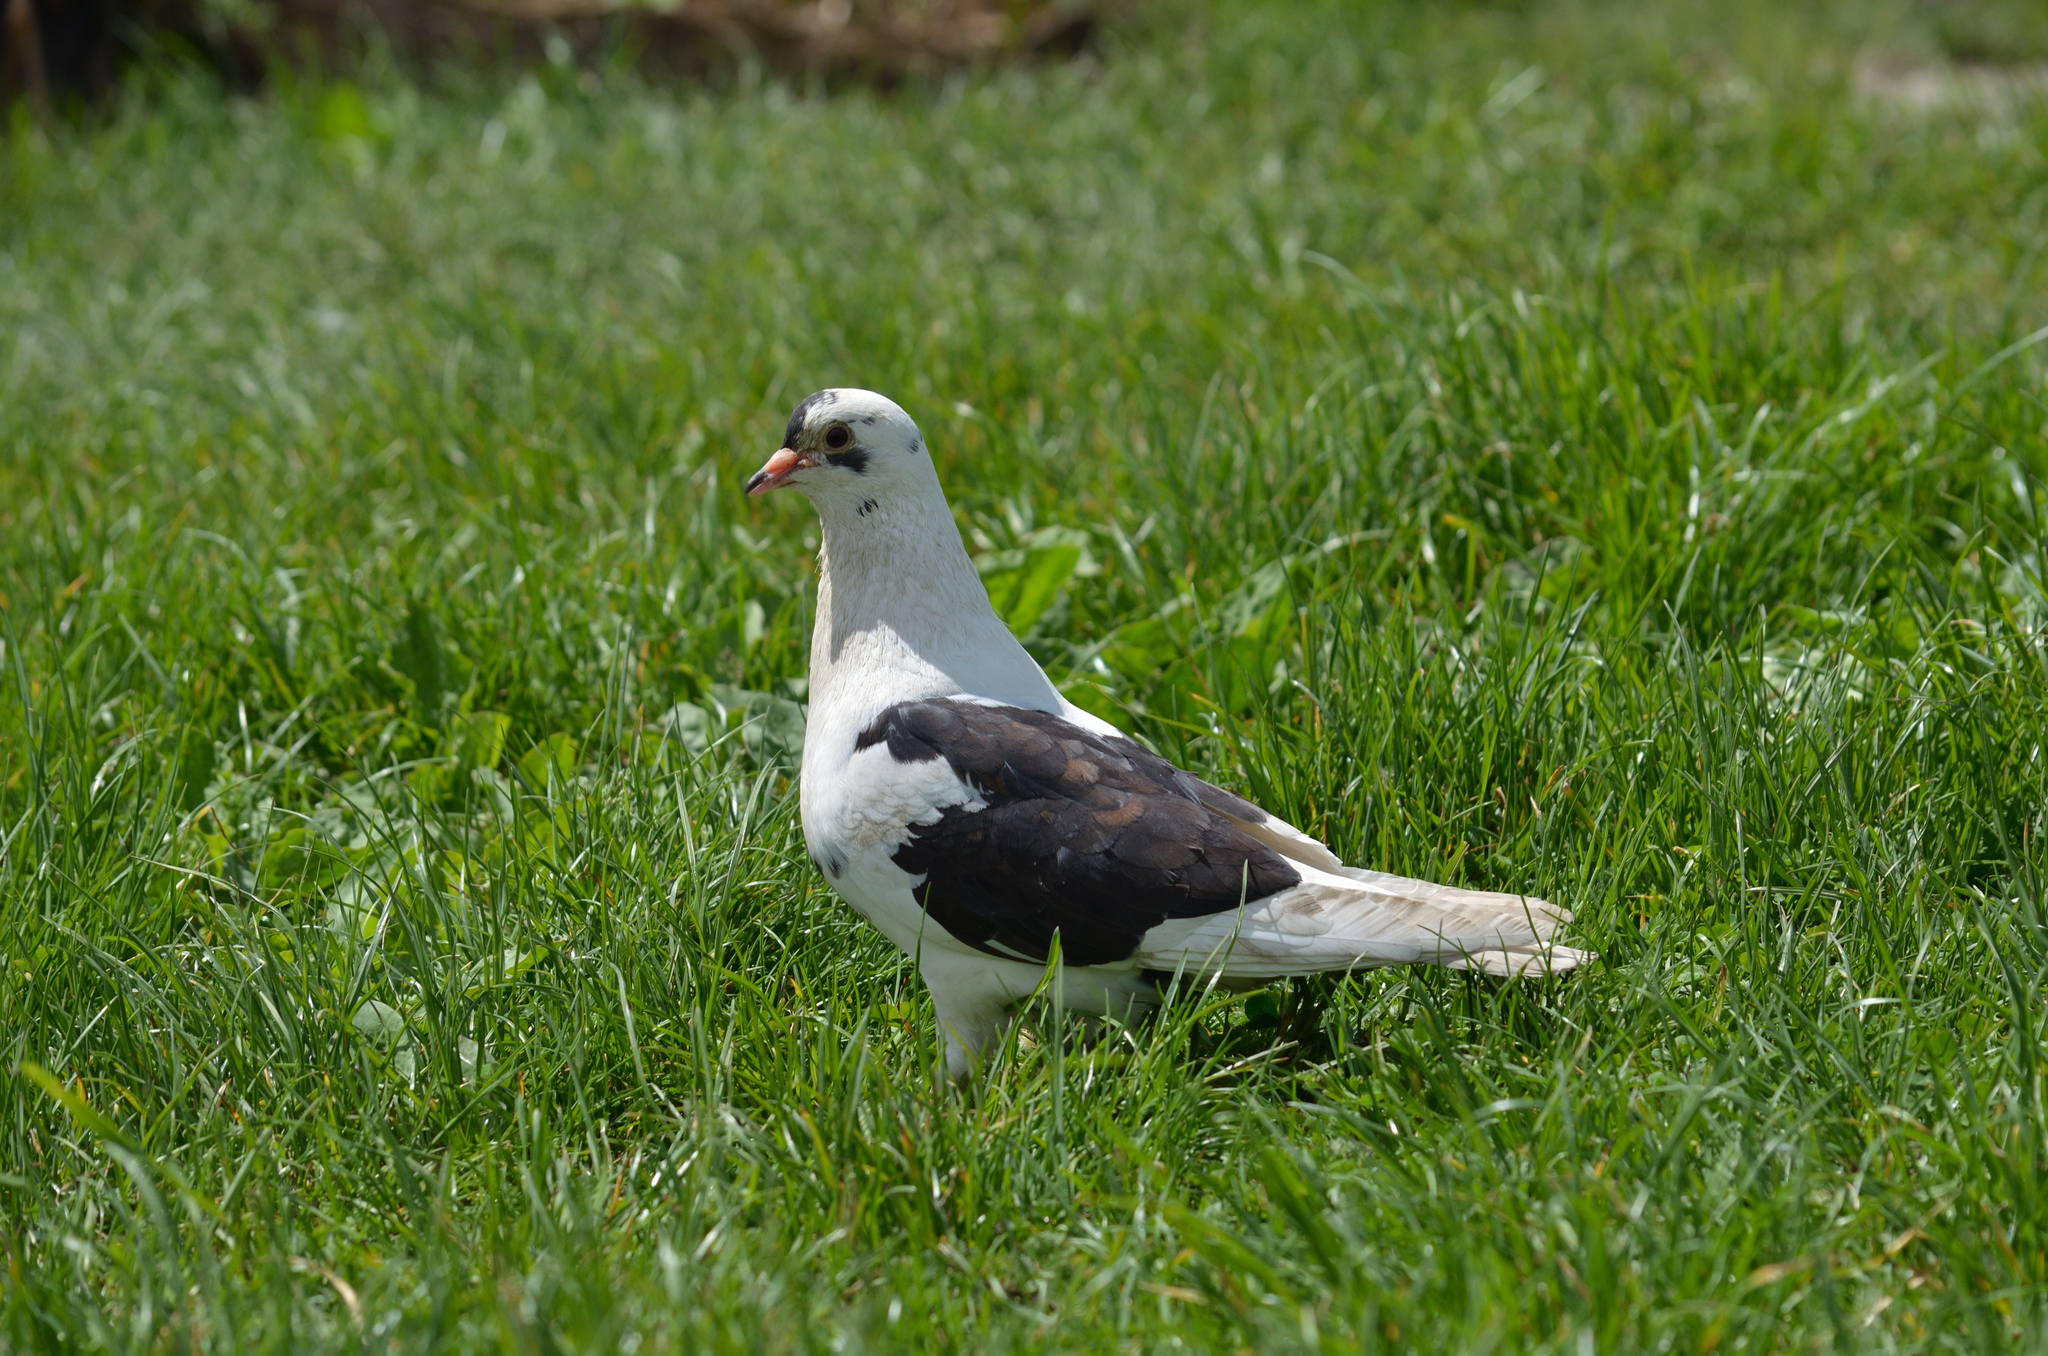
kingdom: Animalia
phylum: Chordata
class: Aves
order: Columbiformes
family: Columbidae
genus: Columba
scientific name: Columba livia
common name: Rock pigeon
